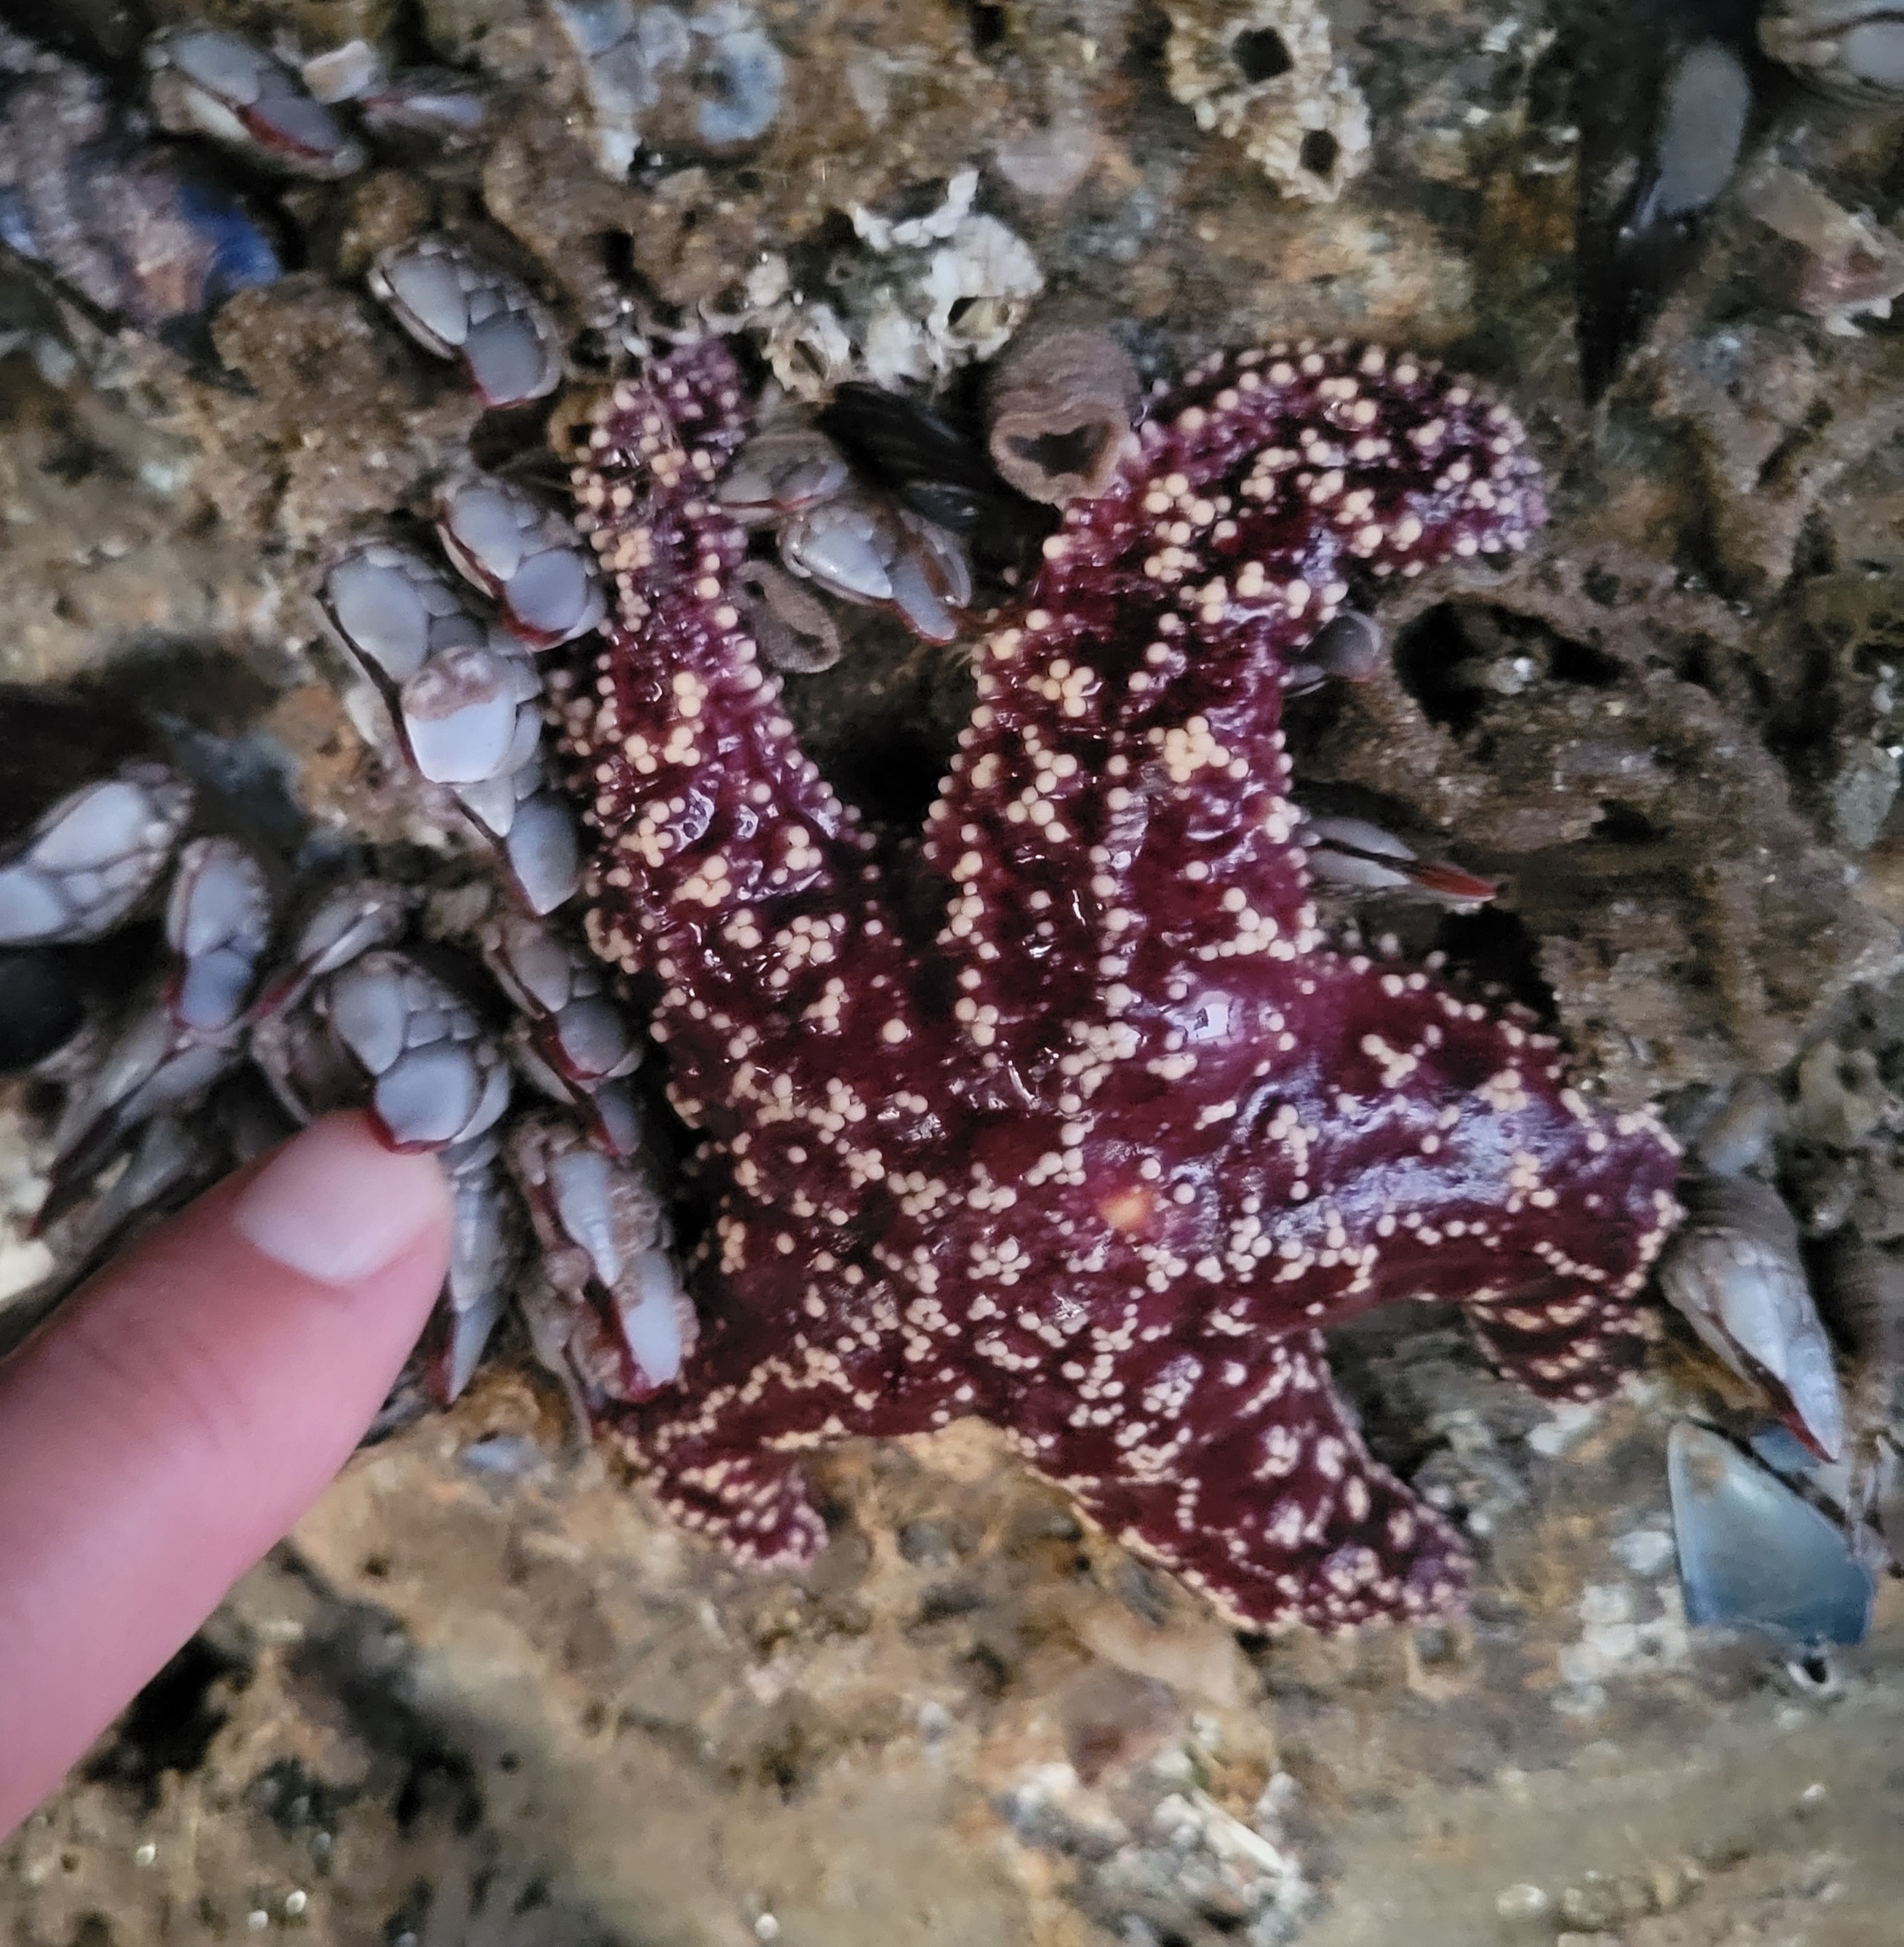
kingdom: Animalia
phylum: Echinodermata
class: Asteroidea
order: Forcipulatida
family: Asteriidae
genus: Pisaster
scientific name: Pisaster ochraceus
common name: Ochre stars
